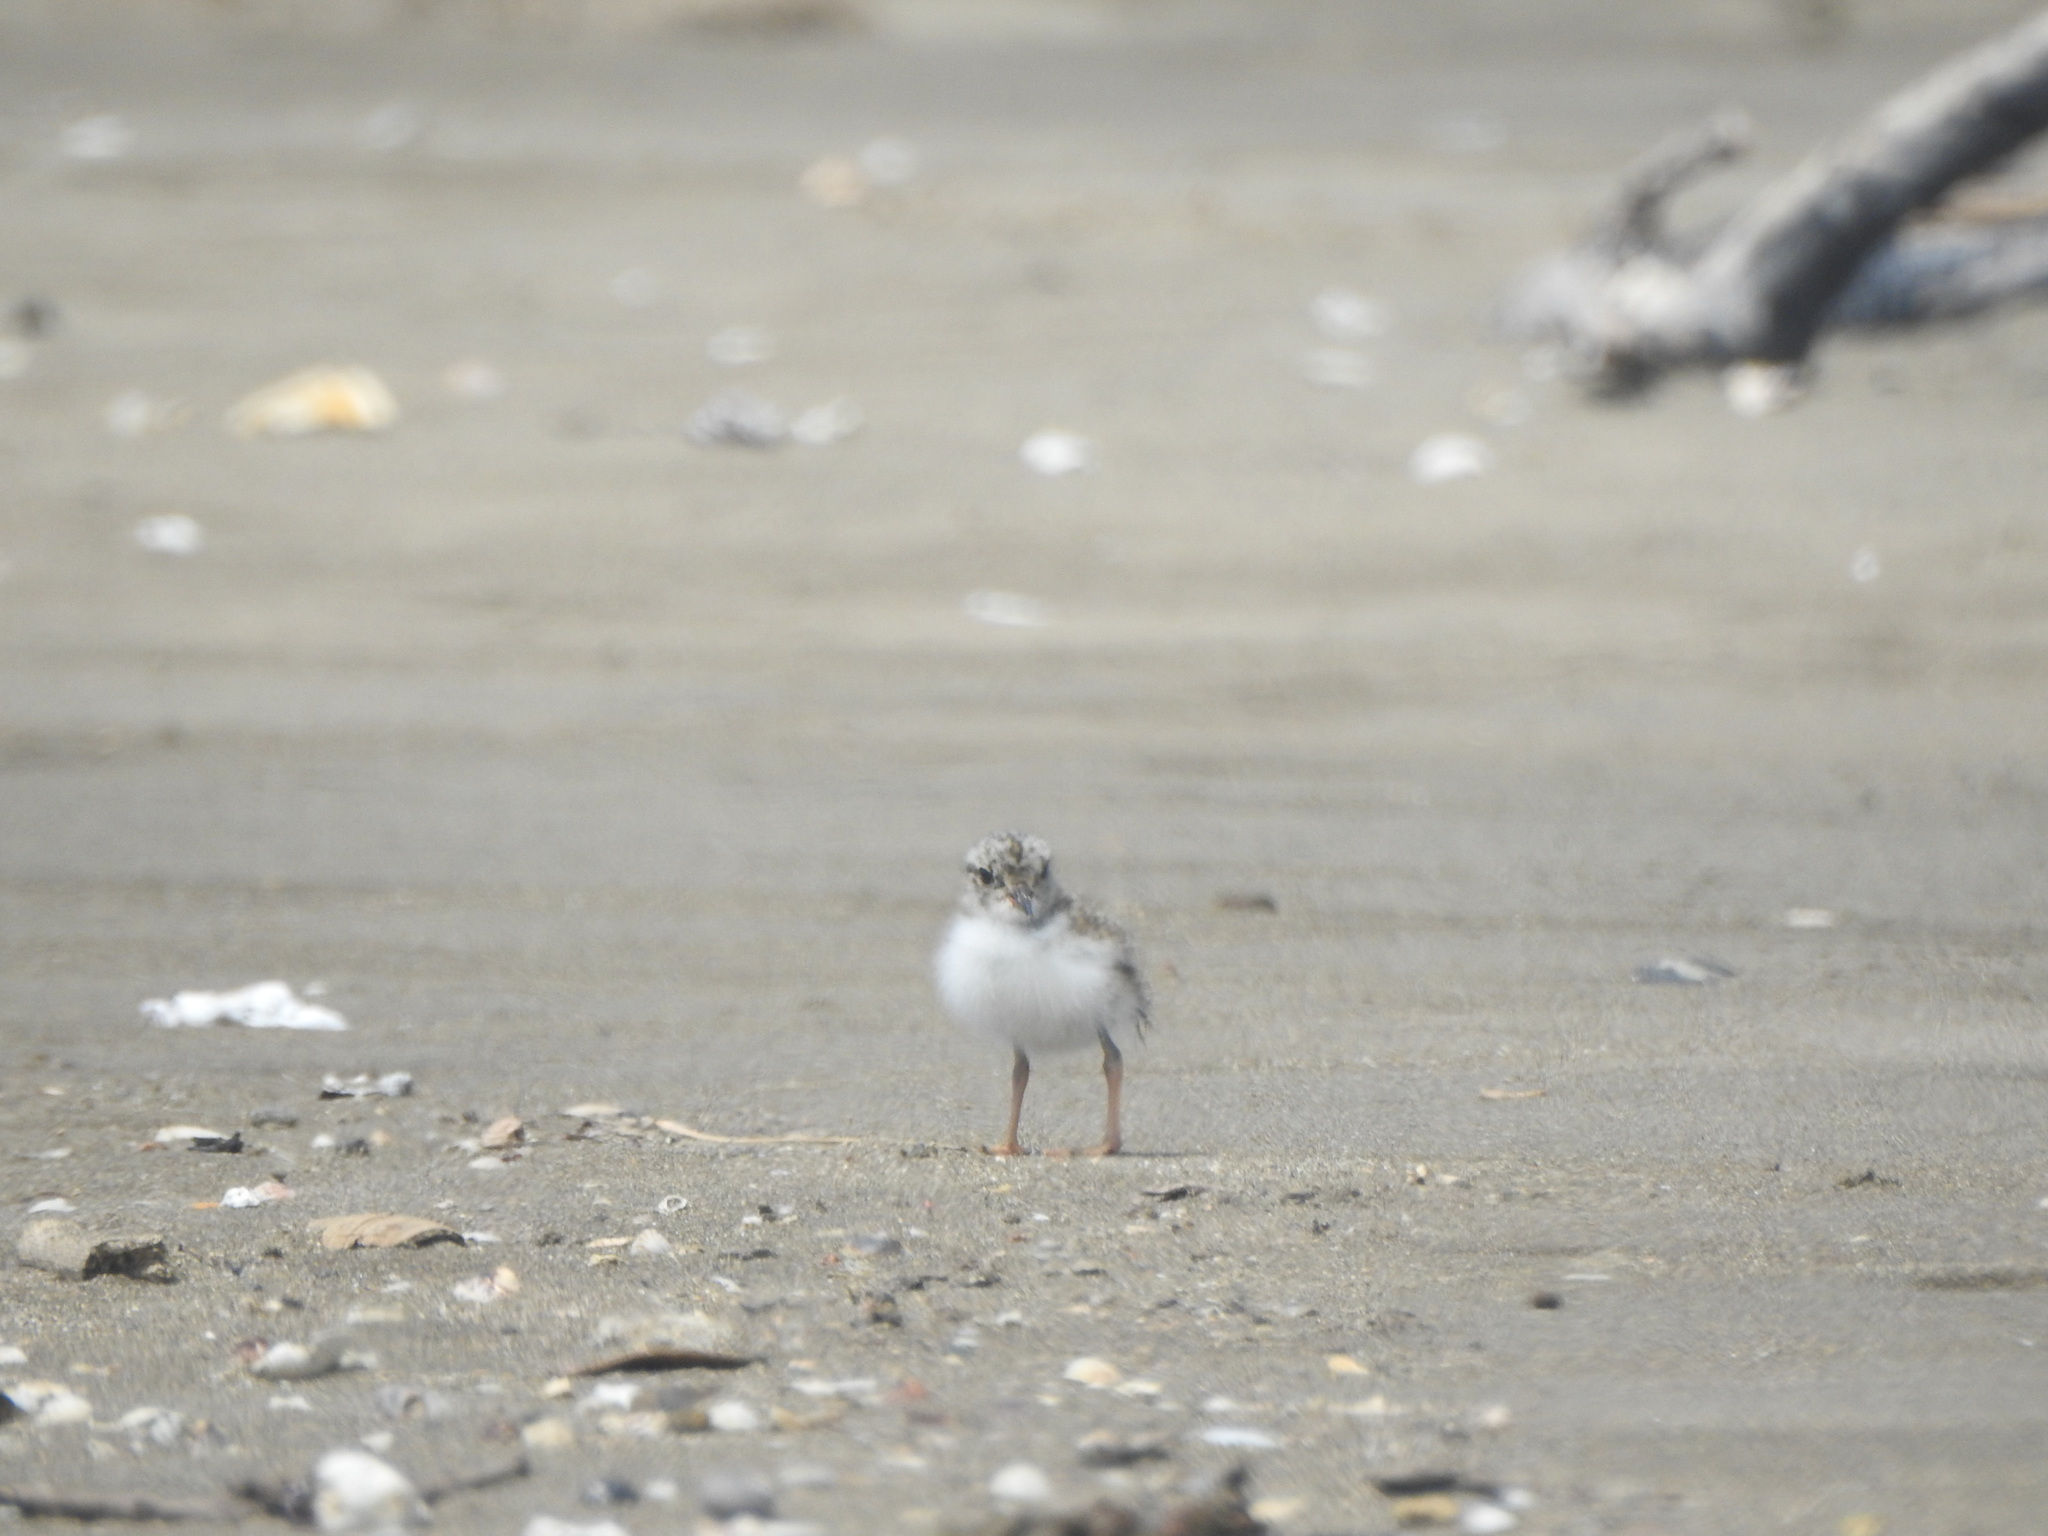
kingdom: Animalia
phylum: Chordata
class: Aves
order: Charadriiformes
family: Charadriidae
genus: Thinornis
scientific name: Thinornis novaeseelandiae
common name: Shore dotterel
